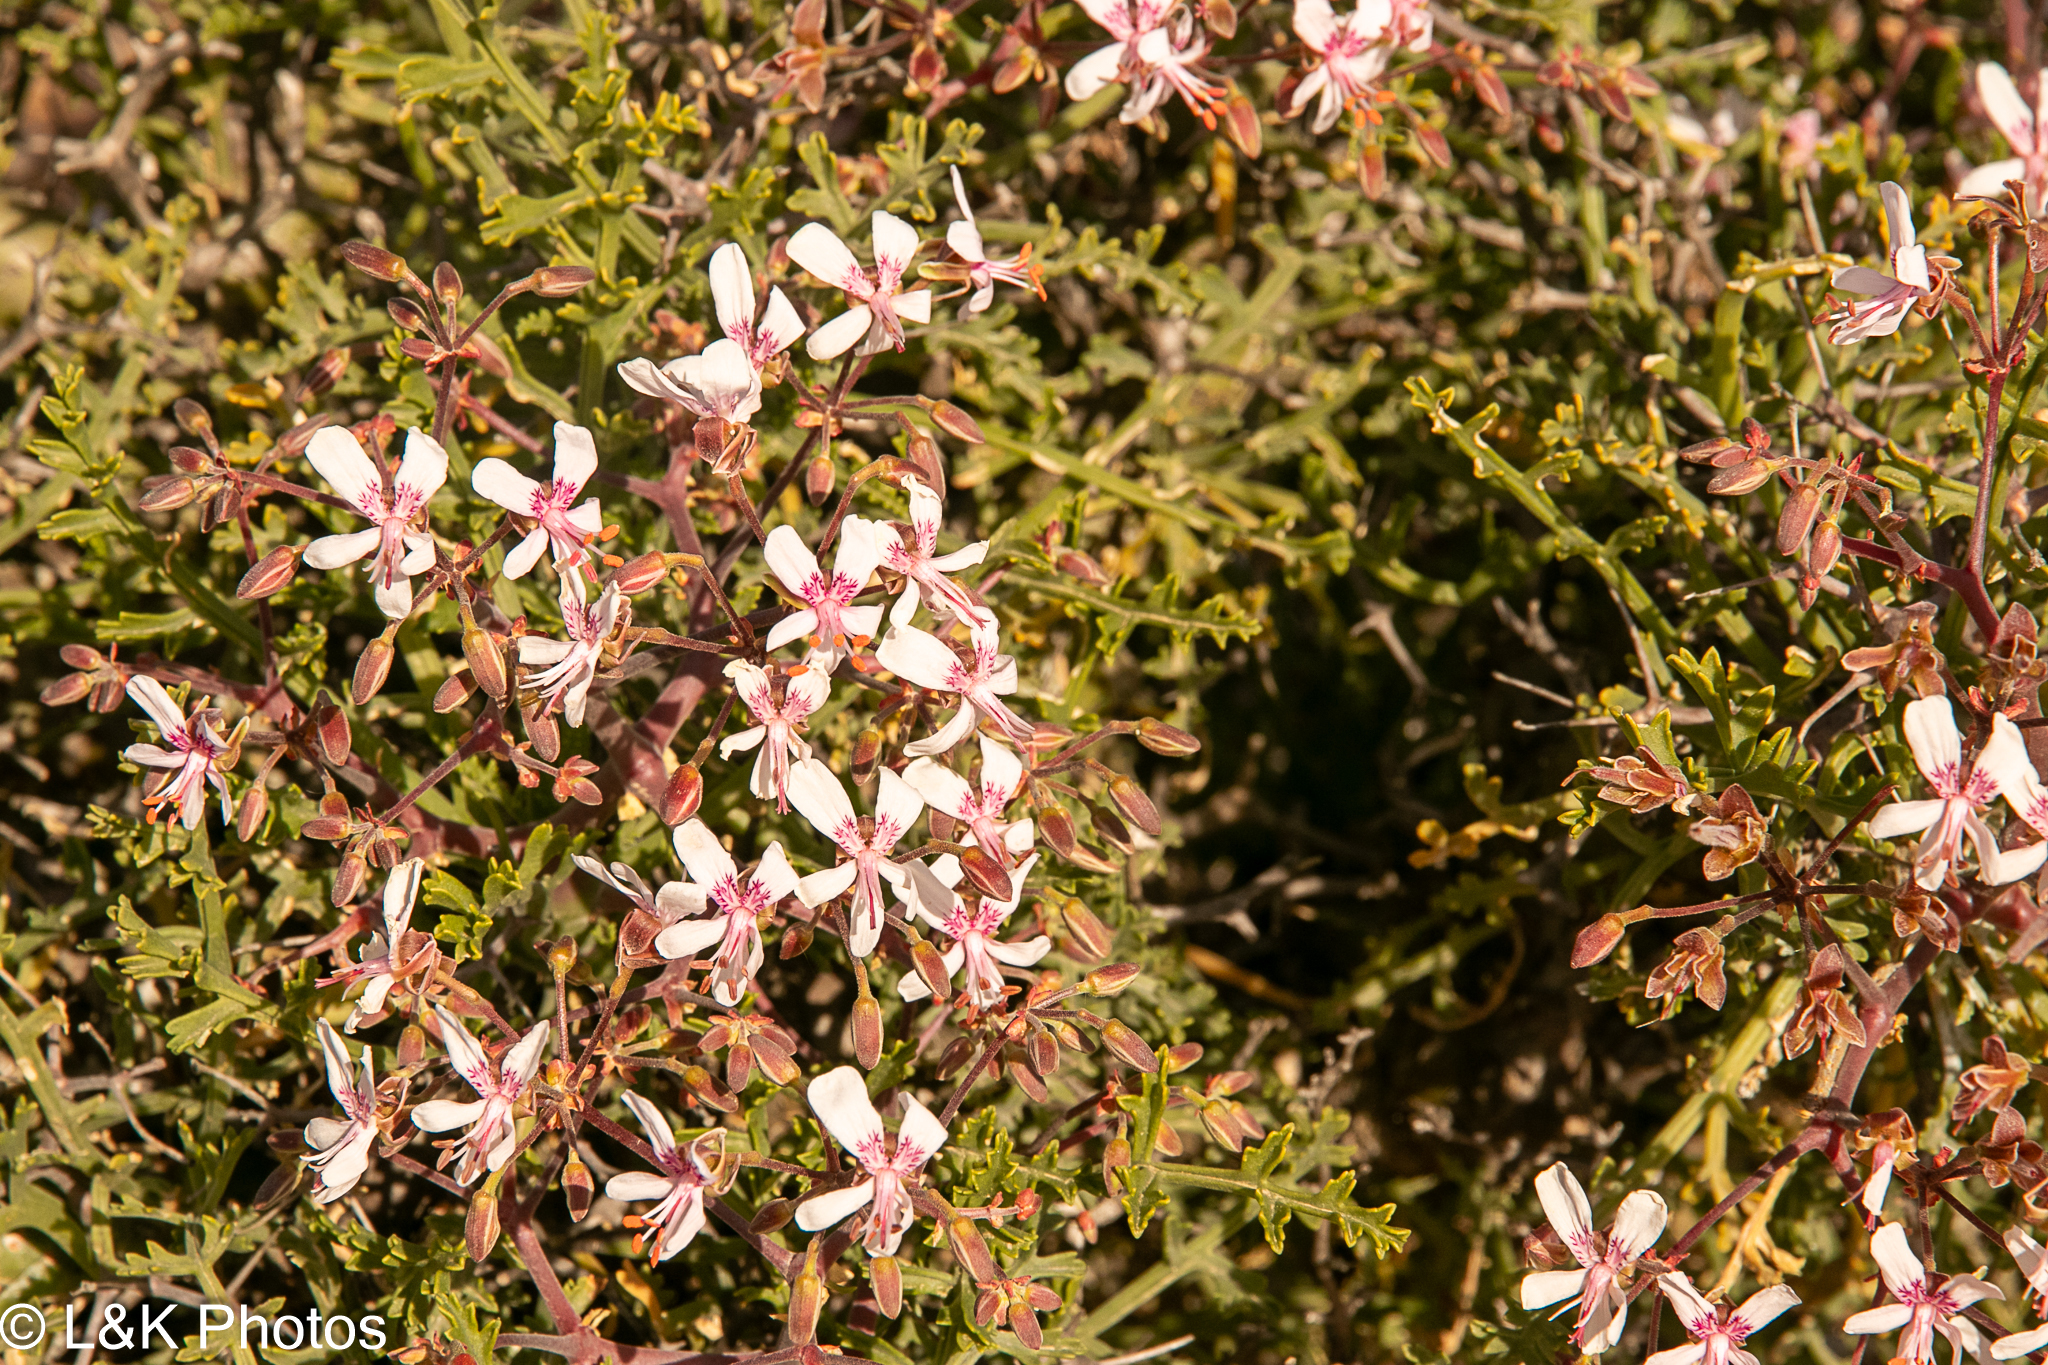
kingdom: Plantae
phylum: Tracheophyta
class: Magnoliopsida
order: Geraniales
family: Geraniaceae
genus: Pelargonium
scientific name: Pelargonium crithmifolium
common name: Samphire-leaf pelargonium
